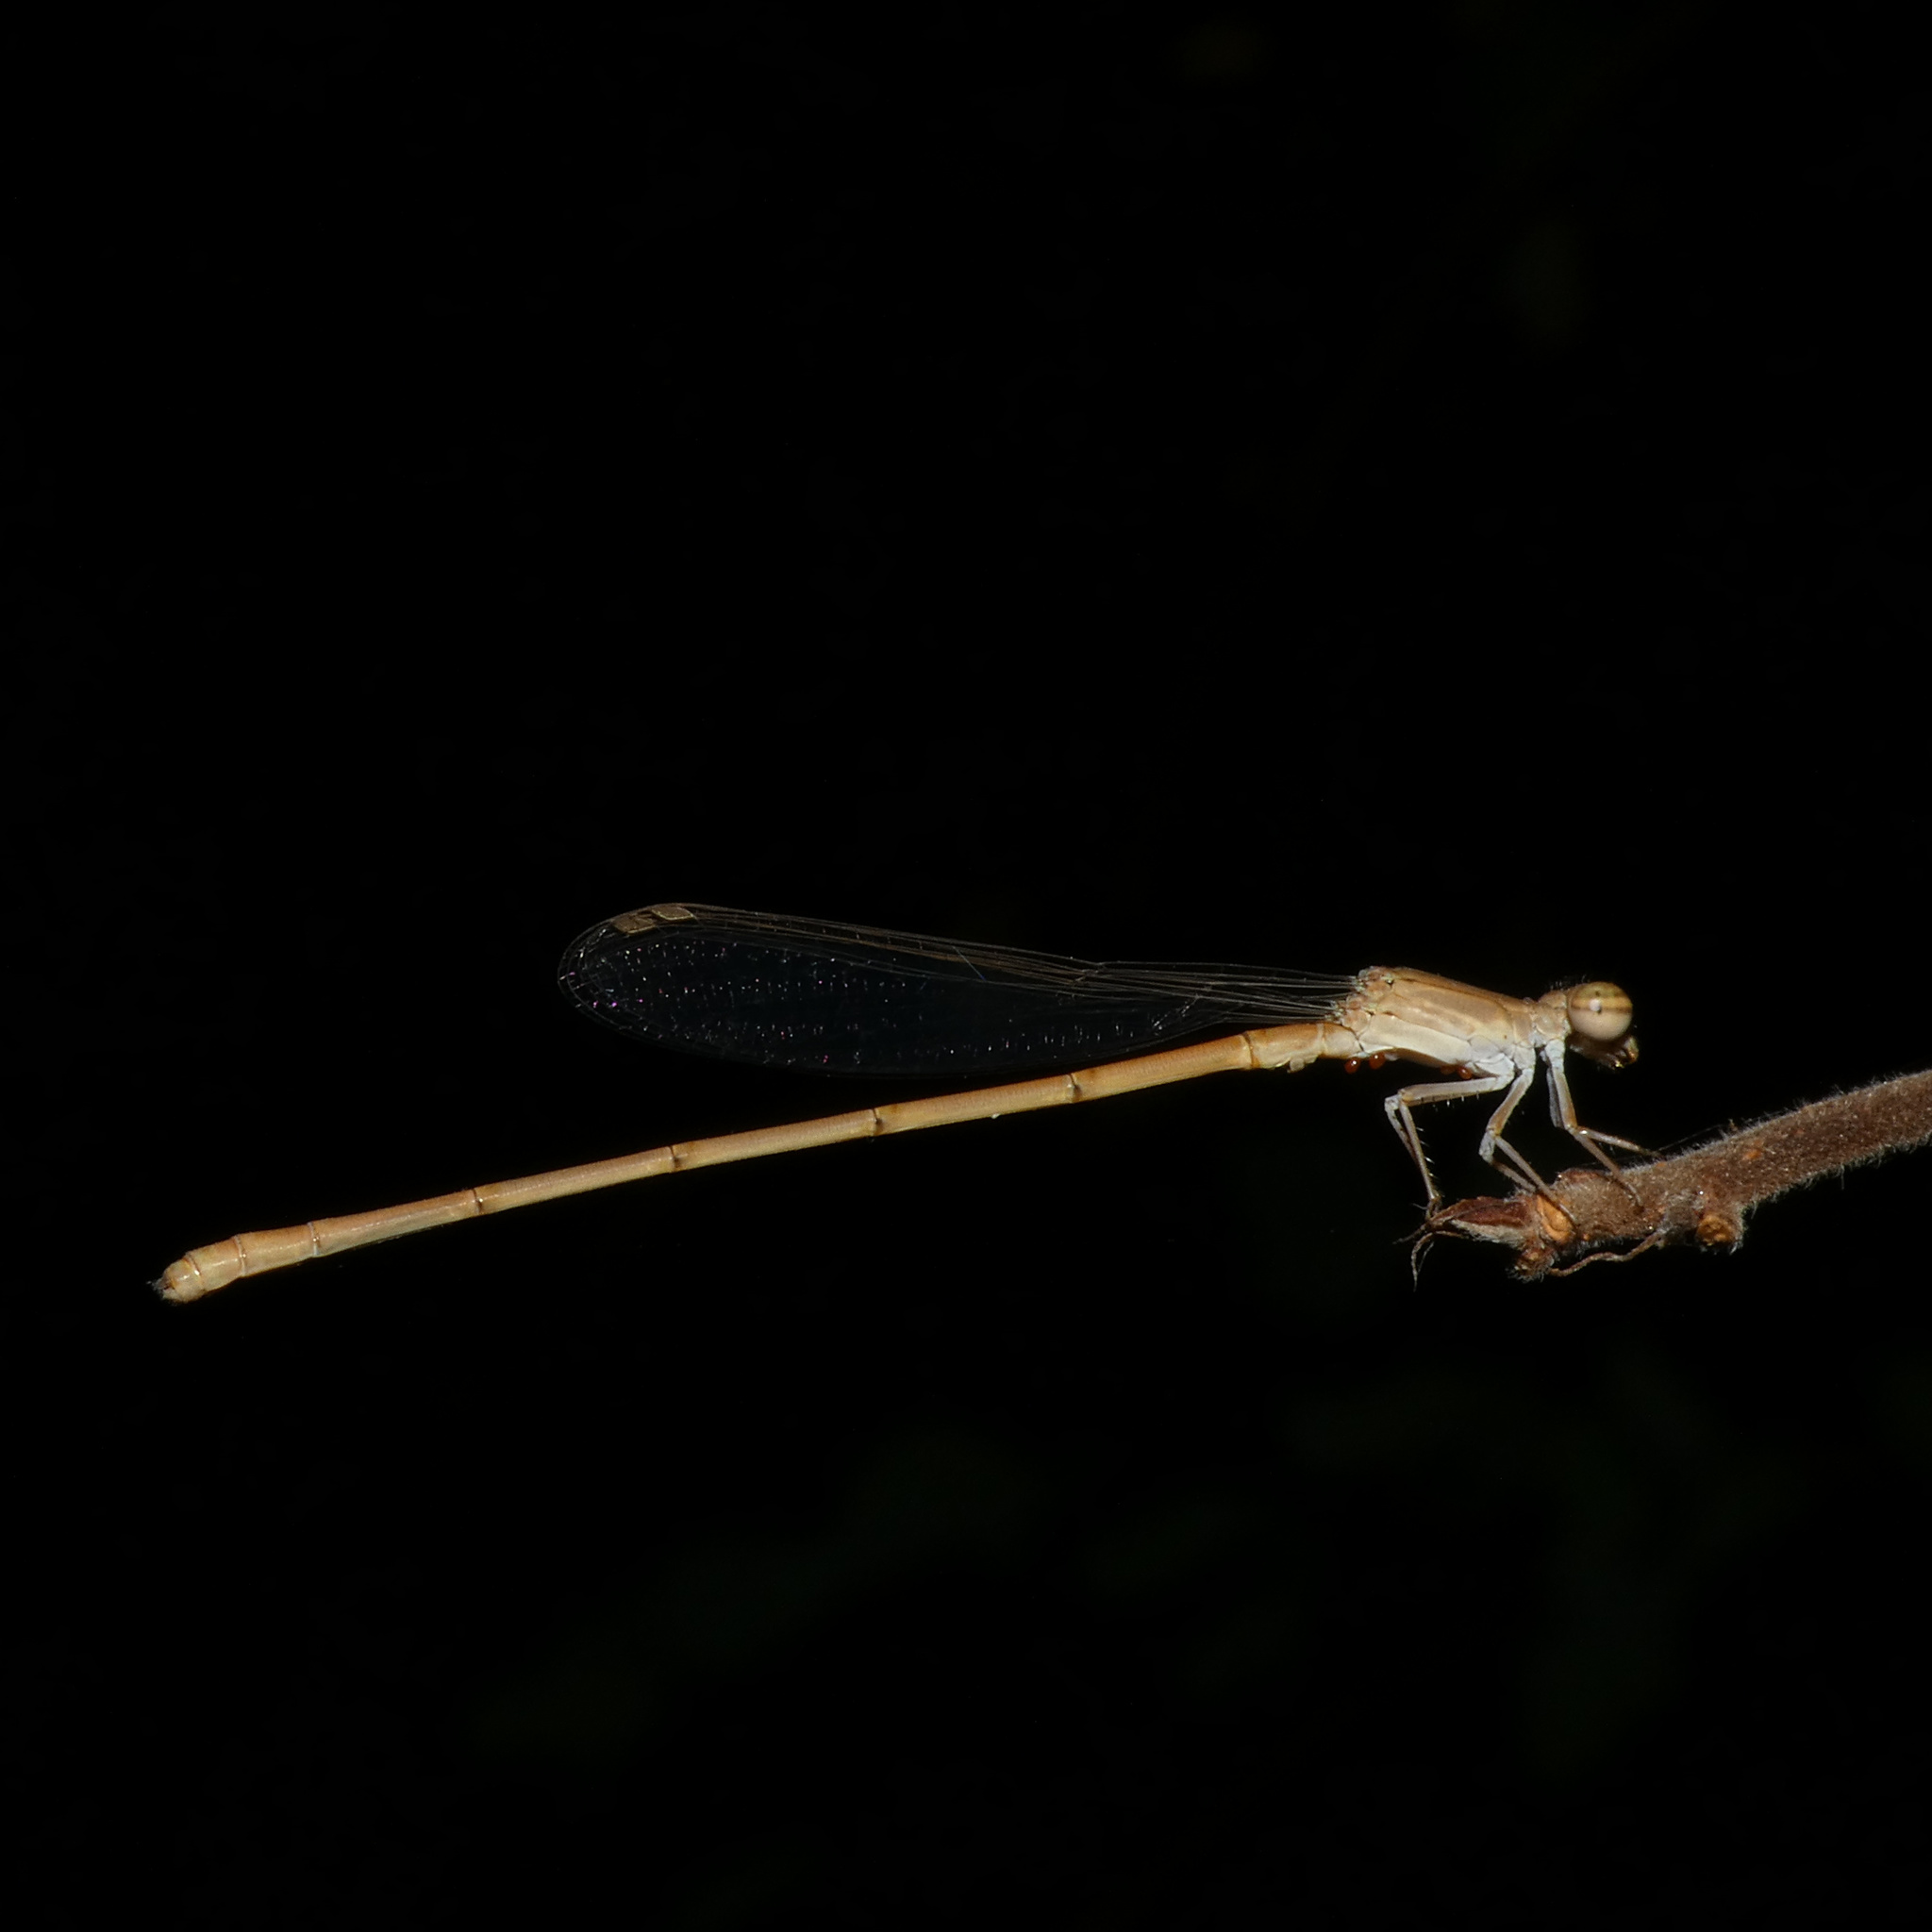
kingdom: Animalia
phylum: Arthropoda
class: Insecta
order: Odonata
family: Coenagrionidae
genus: Ceriagrion
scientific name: Ceriagrion suave
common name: Plain waxtail
